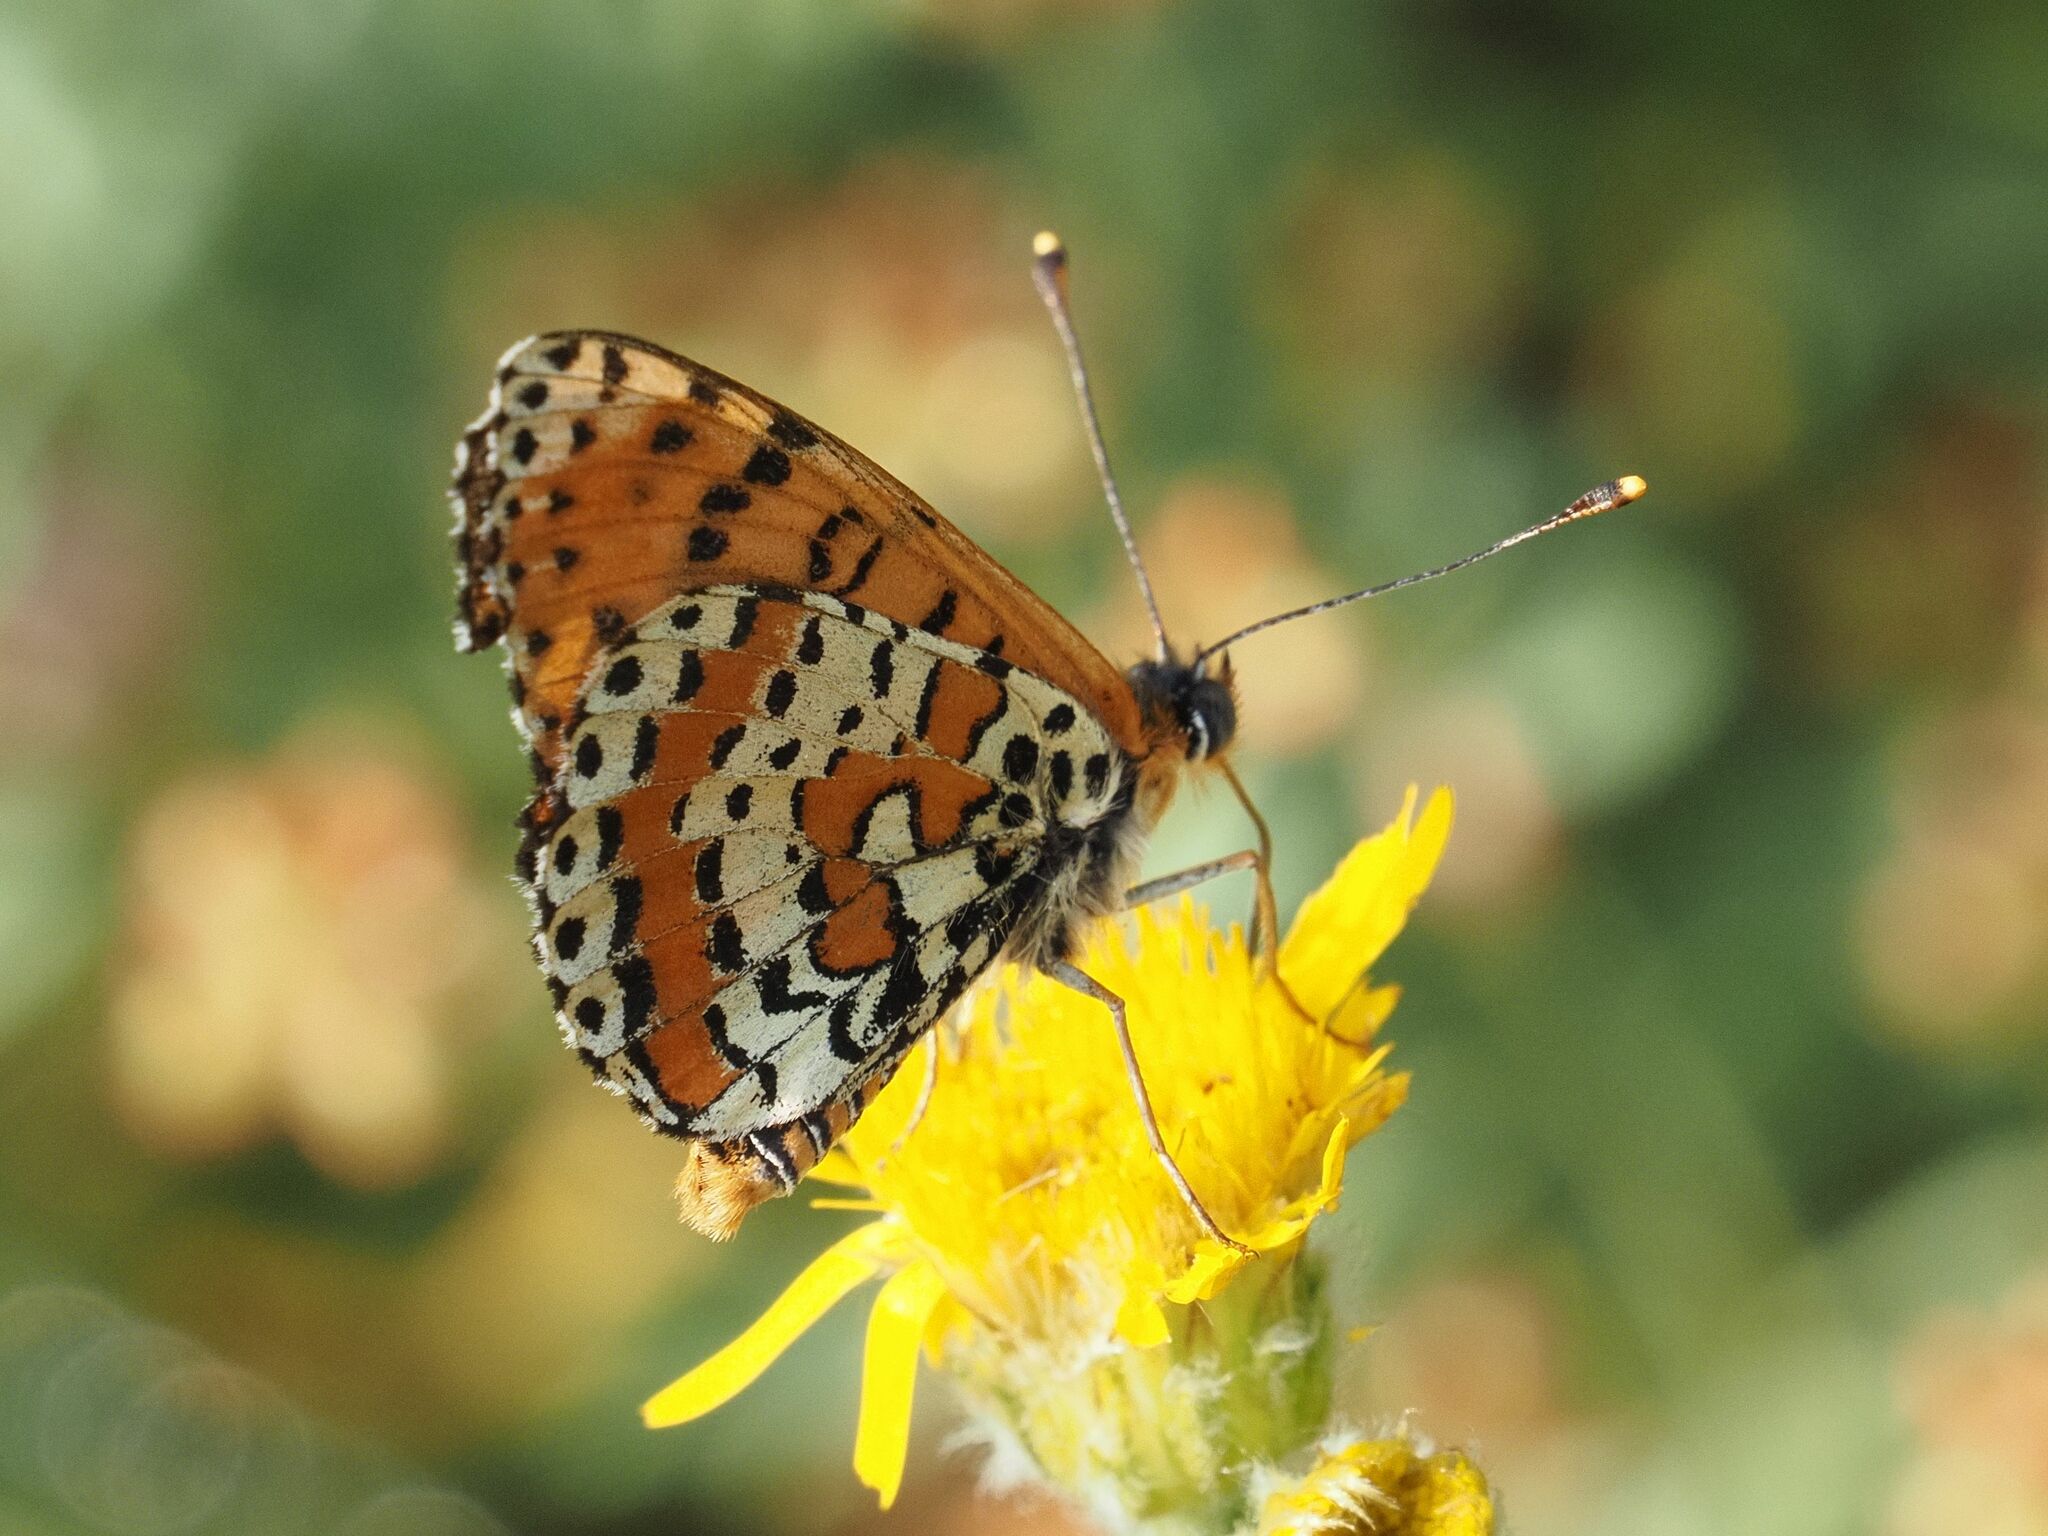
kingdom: Animalia
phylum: Arthropoda
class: Insecta
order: Lepidoptera
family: Nymphalidae
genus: Melitaea
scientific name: Melitaea didyma
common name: Spotted fritillary
